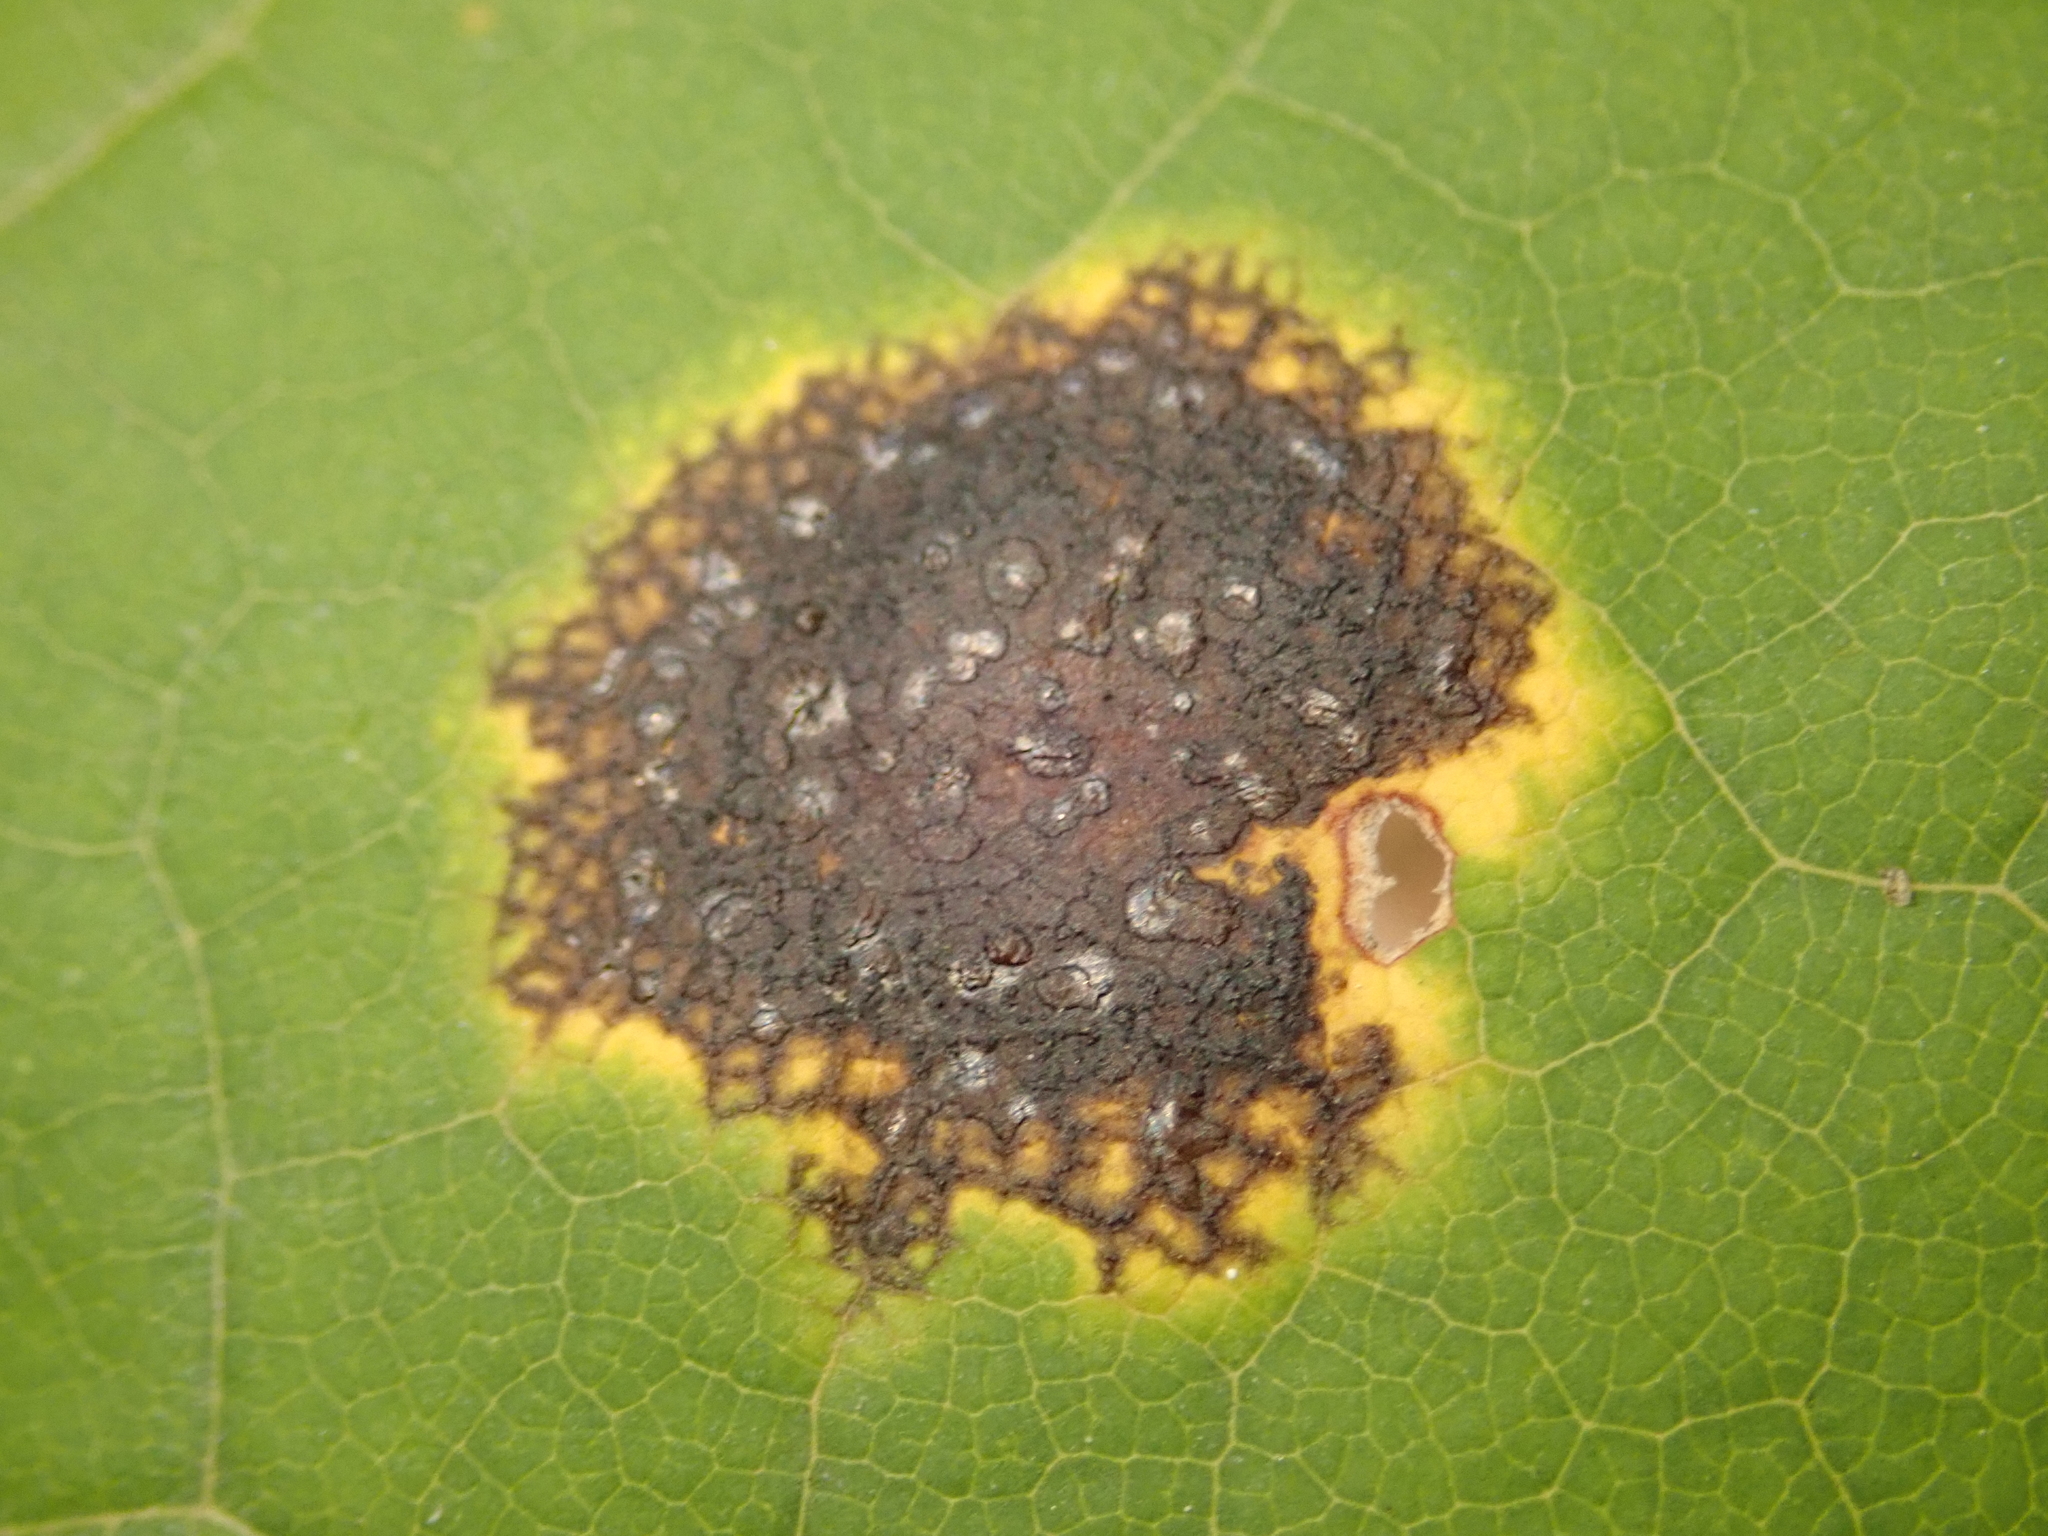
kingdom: Fungi
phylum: Ascomycota
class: Leotiomycetes
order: Rhytismatales
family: Rhytismataceae
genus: Rhytisma
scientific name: Rhytisma acerinum
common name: European tar spot
